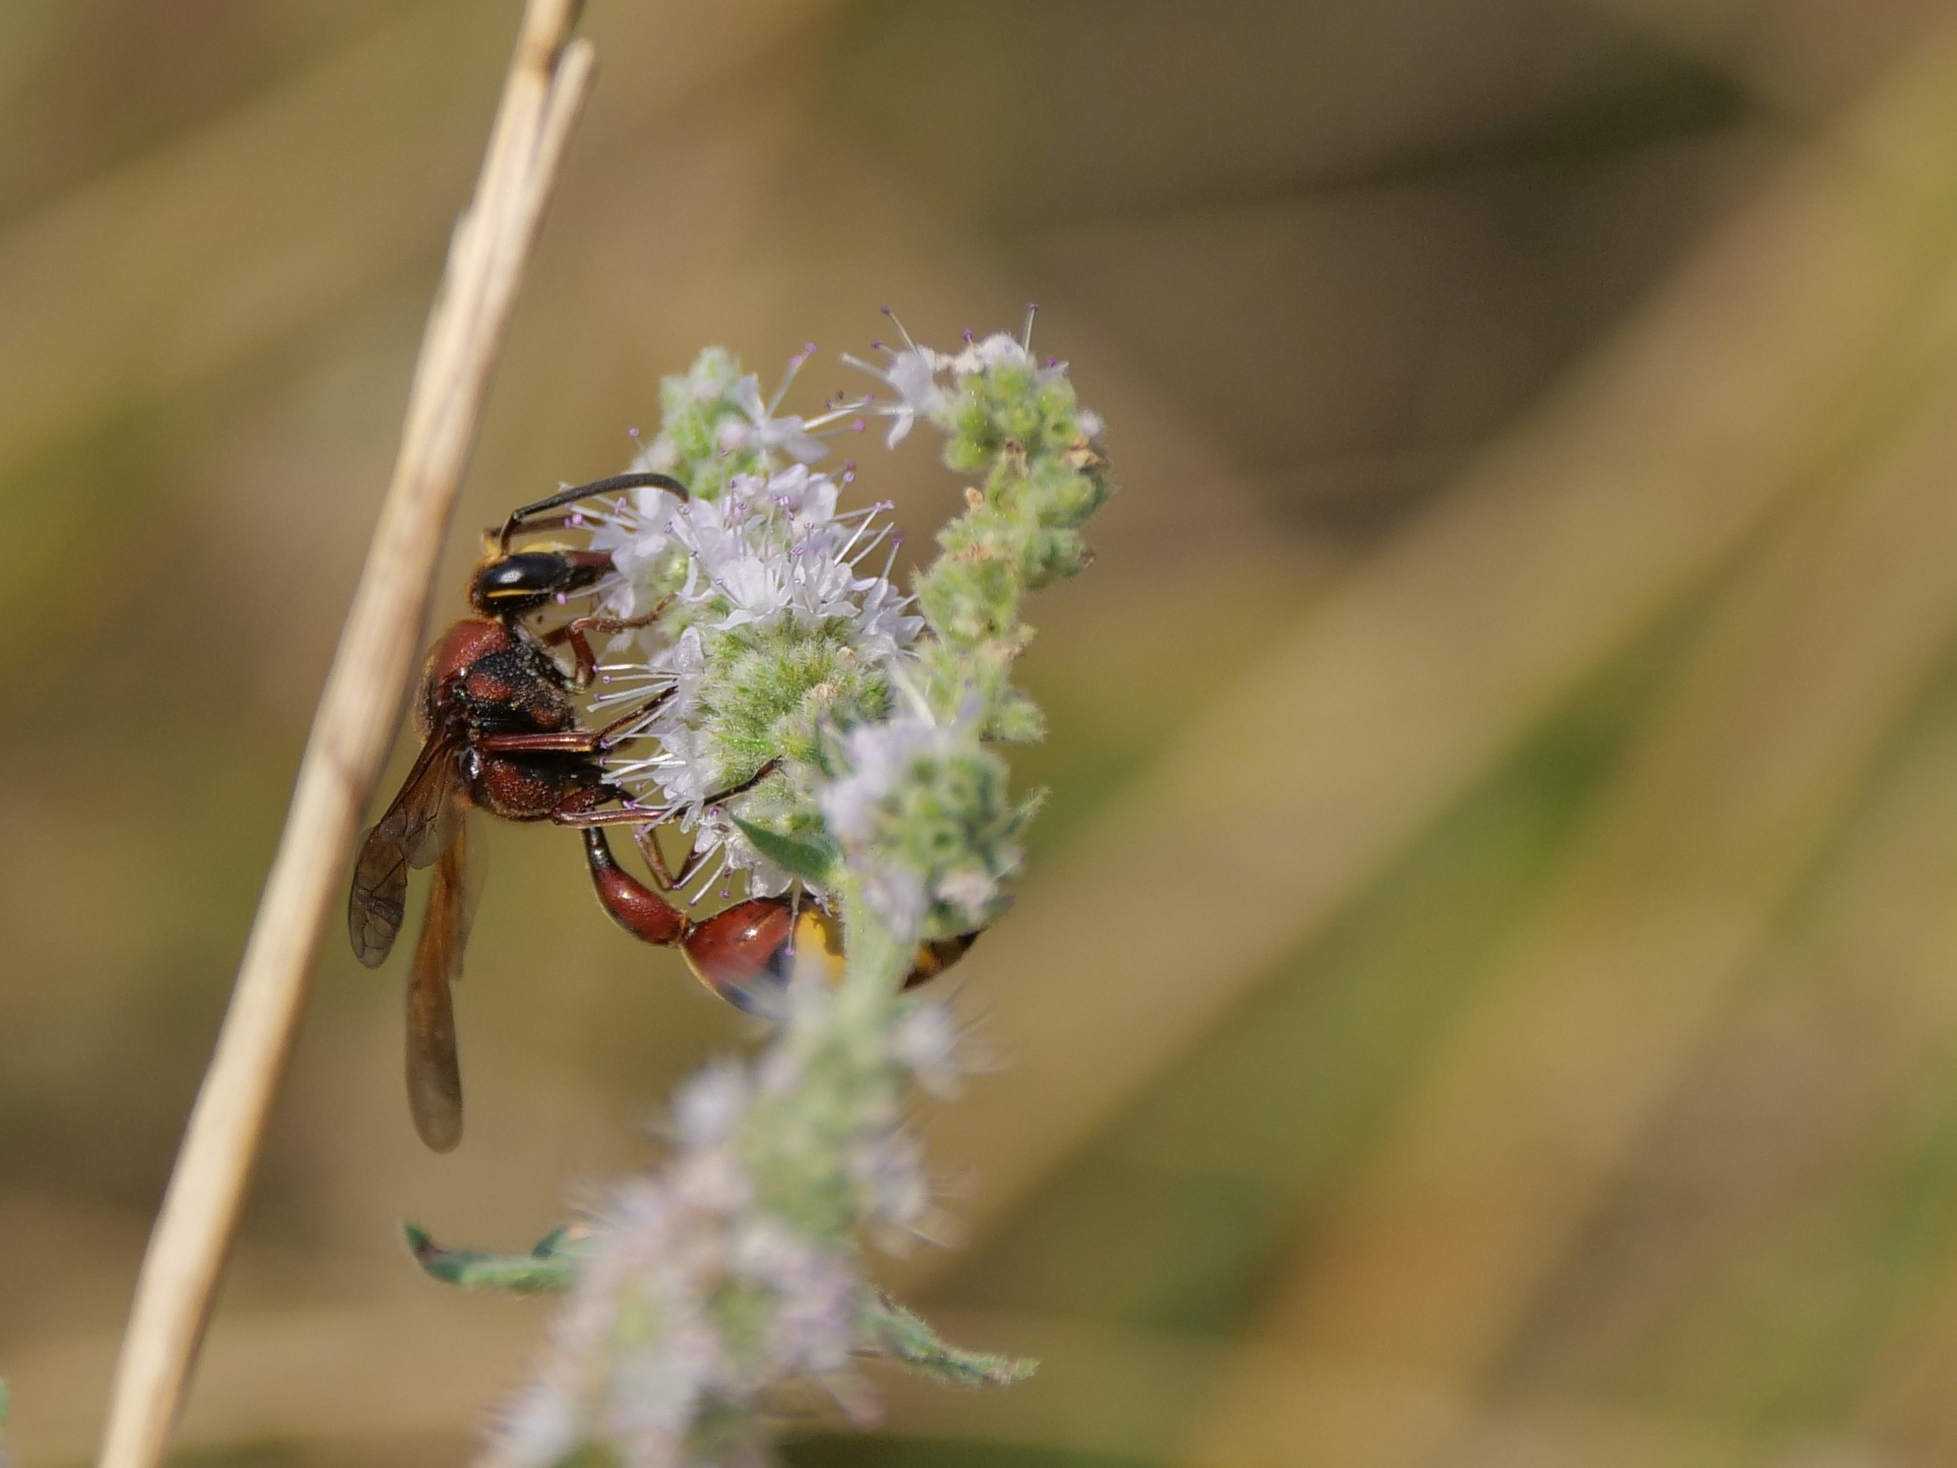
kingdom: Animalia
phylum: Arthropoda
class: Insecta
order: Hymenoptera
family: Eumenidae
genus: Delta
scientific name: Delta unguiculatum
